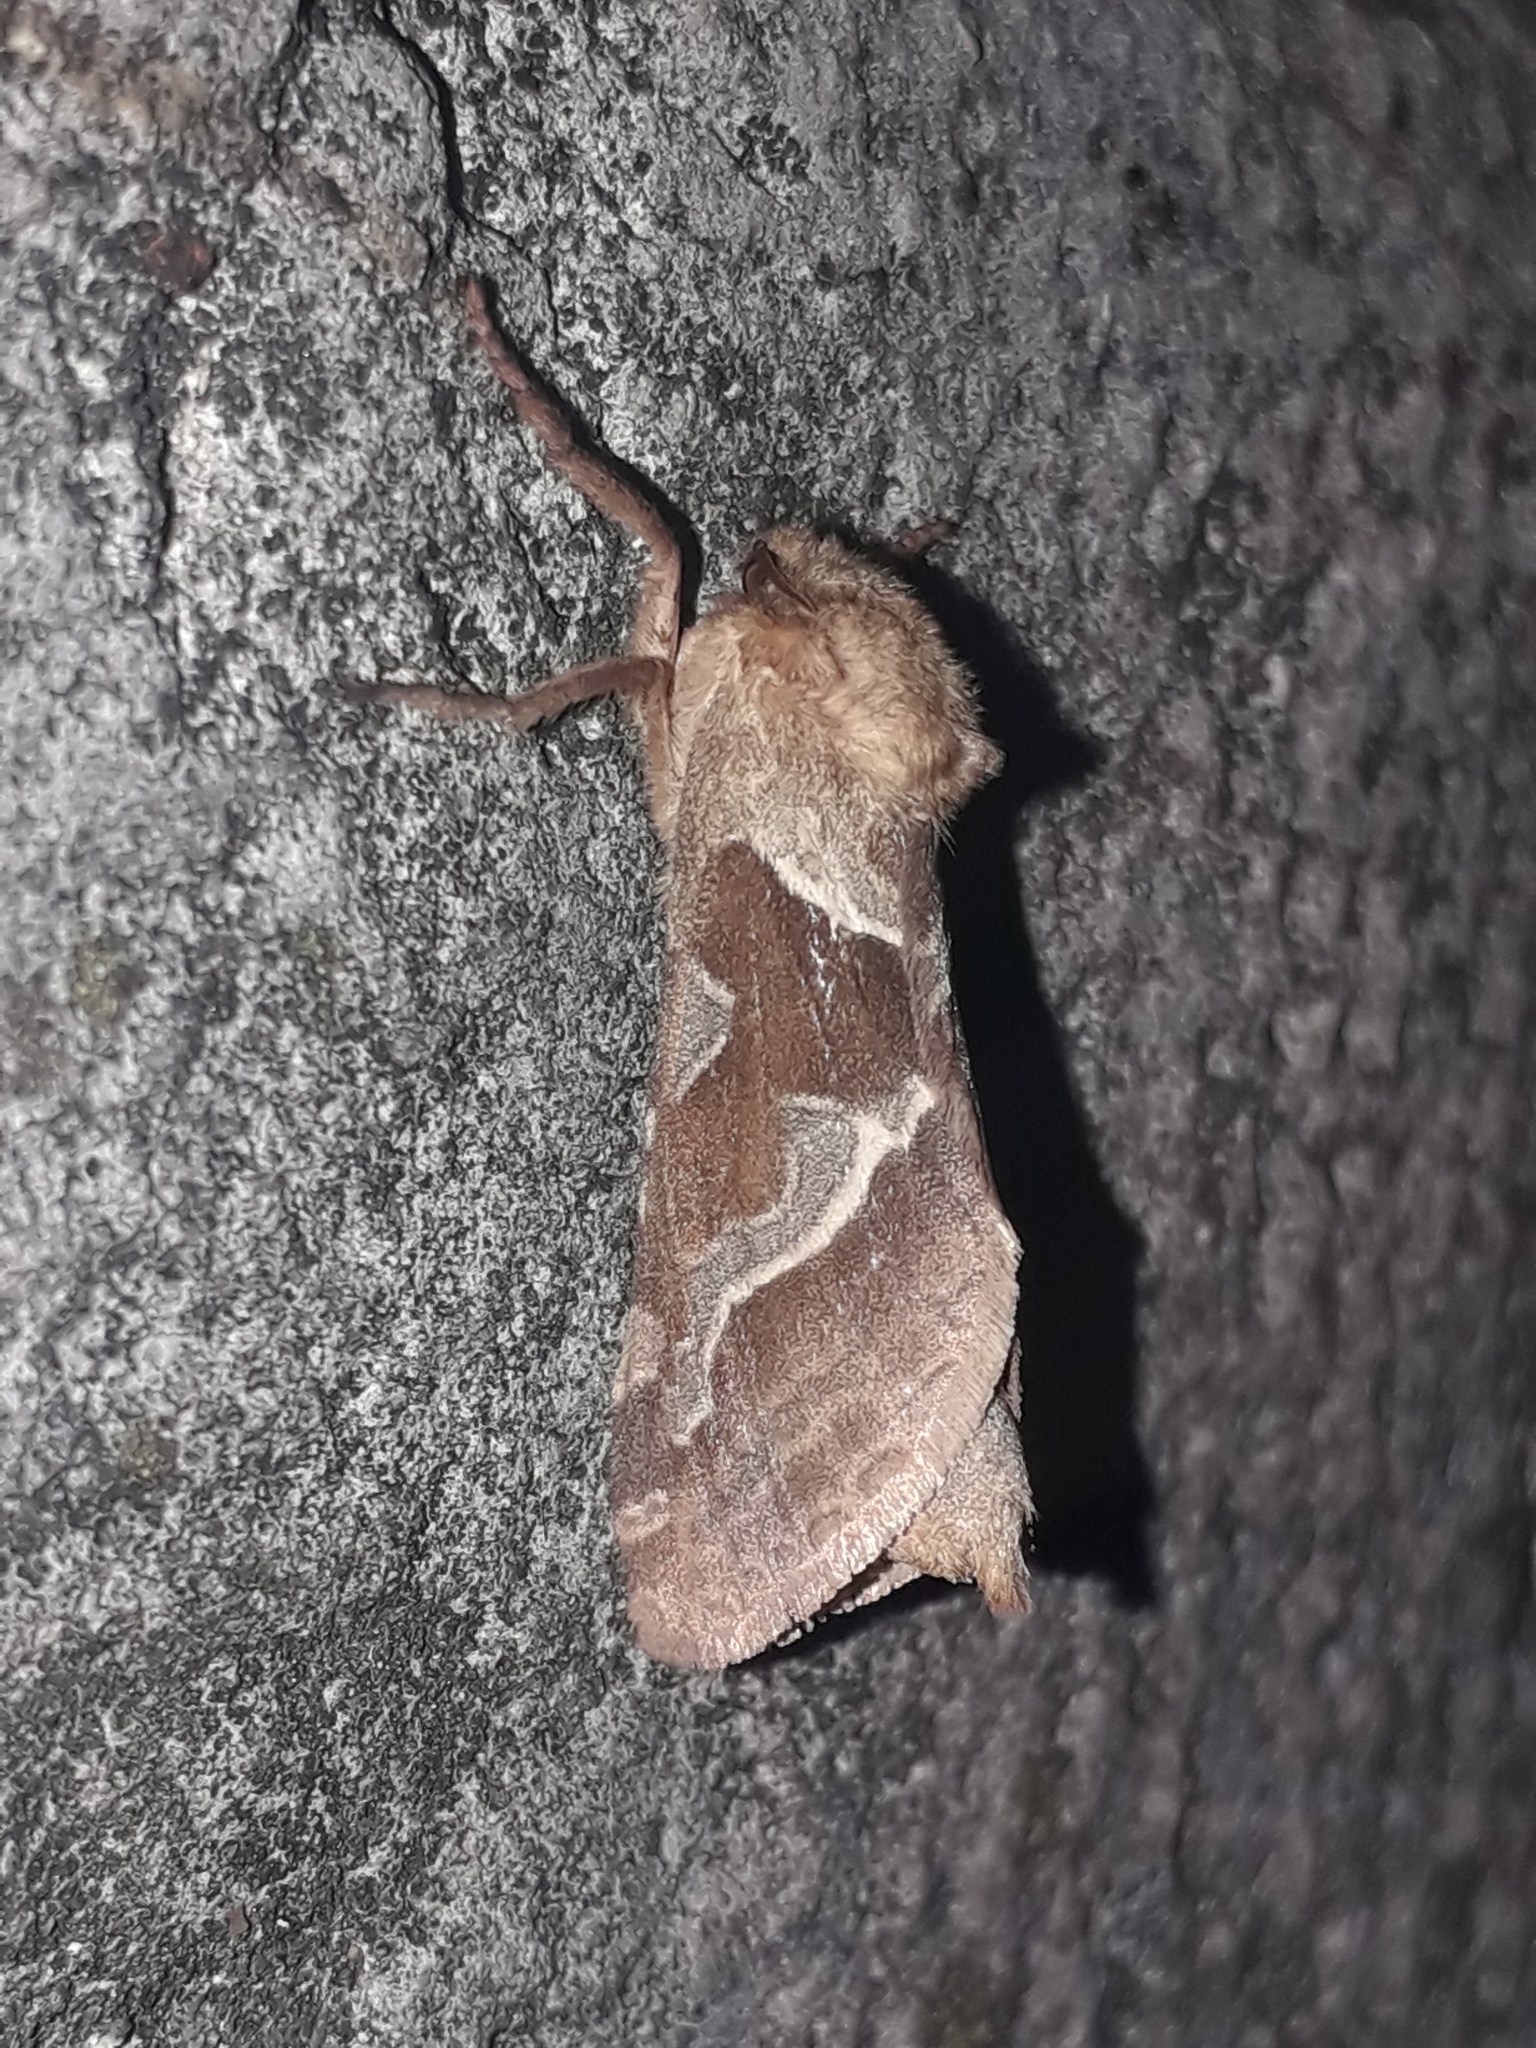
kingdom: Animalia
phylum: Arthropoda
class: Insecta
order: Lepidoptera
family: Hepialidae
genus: Triodia
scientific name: Triodia sylvina
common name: Orange swift
